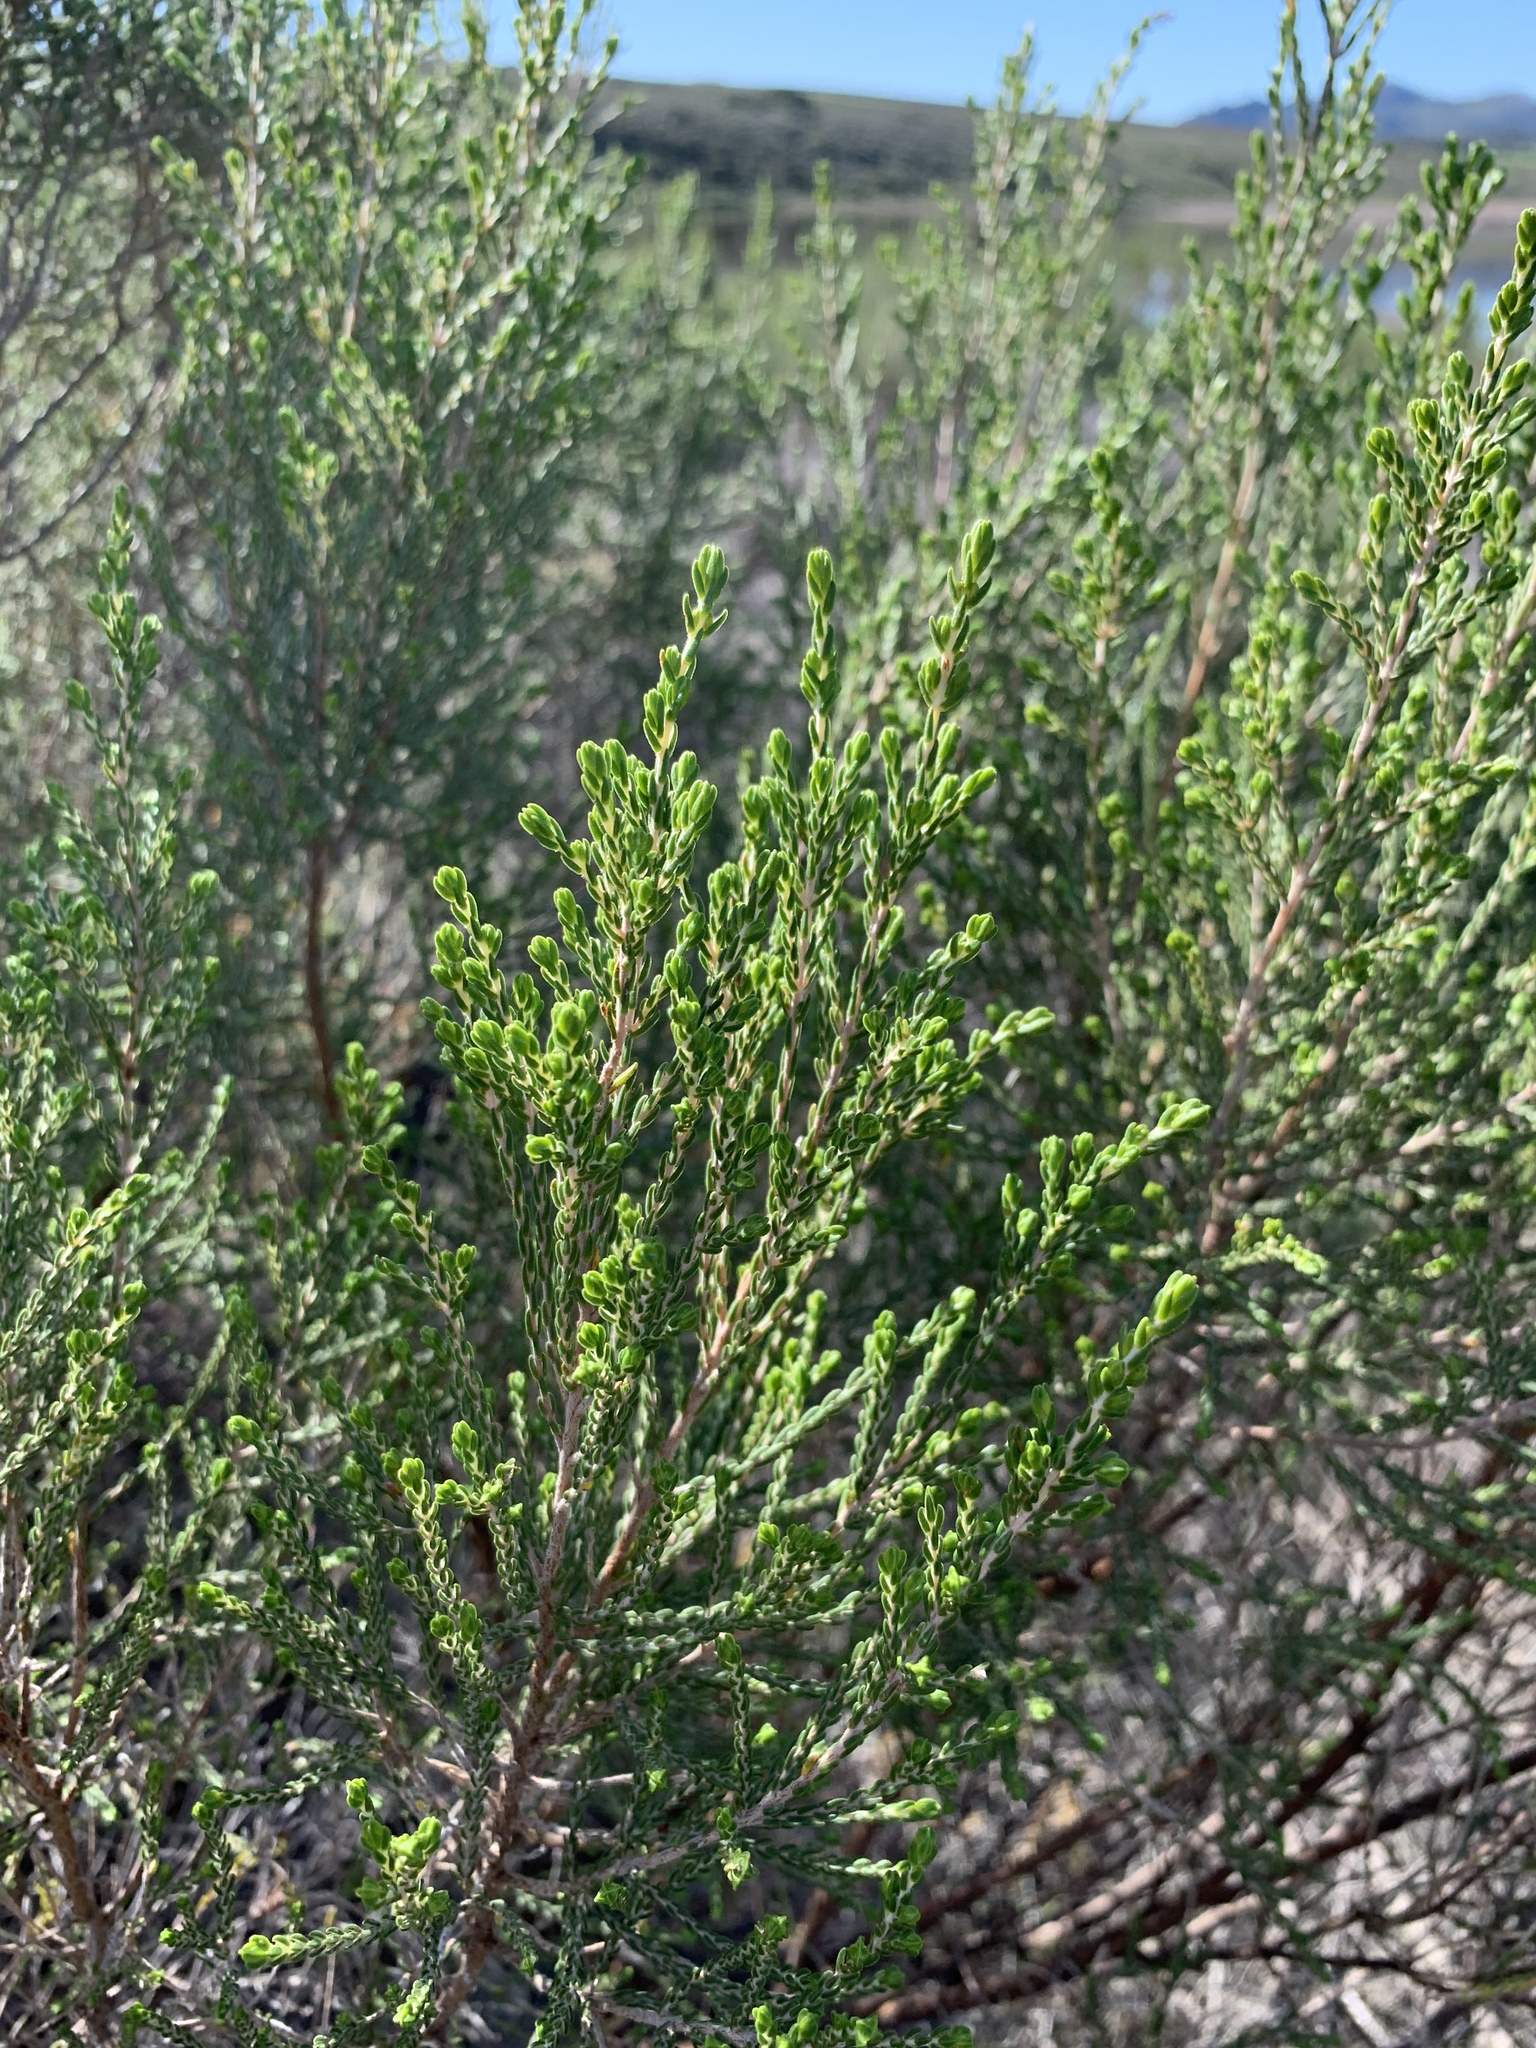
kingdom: Plantae
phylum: Tracheophyta
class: Magnoliopsida
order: Malvales
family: Thymelaeaceae
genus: Passerina
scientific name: Passerina corymbosa
